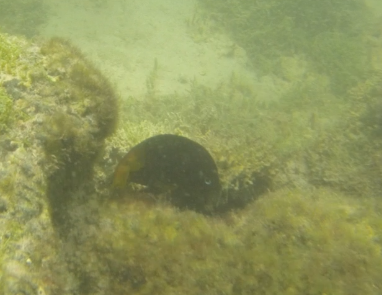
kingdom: Animalia
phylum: Chordata
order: Perciformes
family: Pomacentridae
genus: Stegastes
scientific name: Stegastes arcifrons
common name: Galapagos gregory
